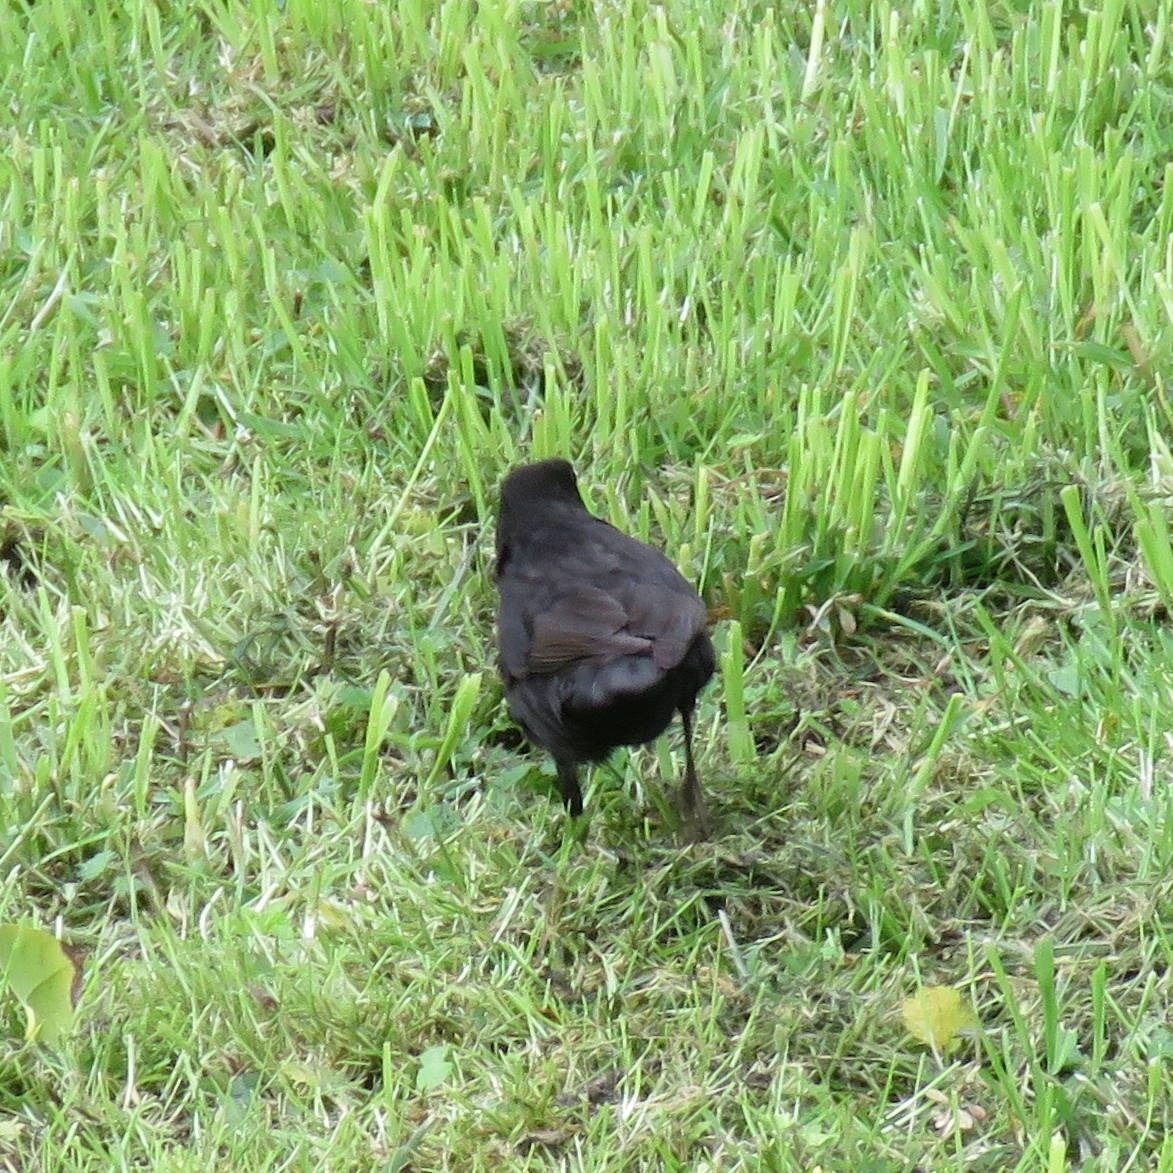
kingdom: Animalia
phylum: Chordata
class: Aves
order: Passeriformes
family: Turdidae
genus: Turdus
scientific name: Turdus merula
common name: Common blackbird
